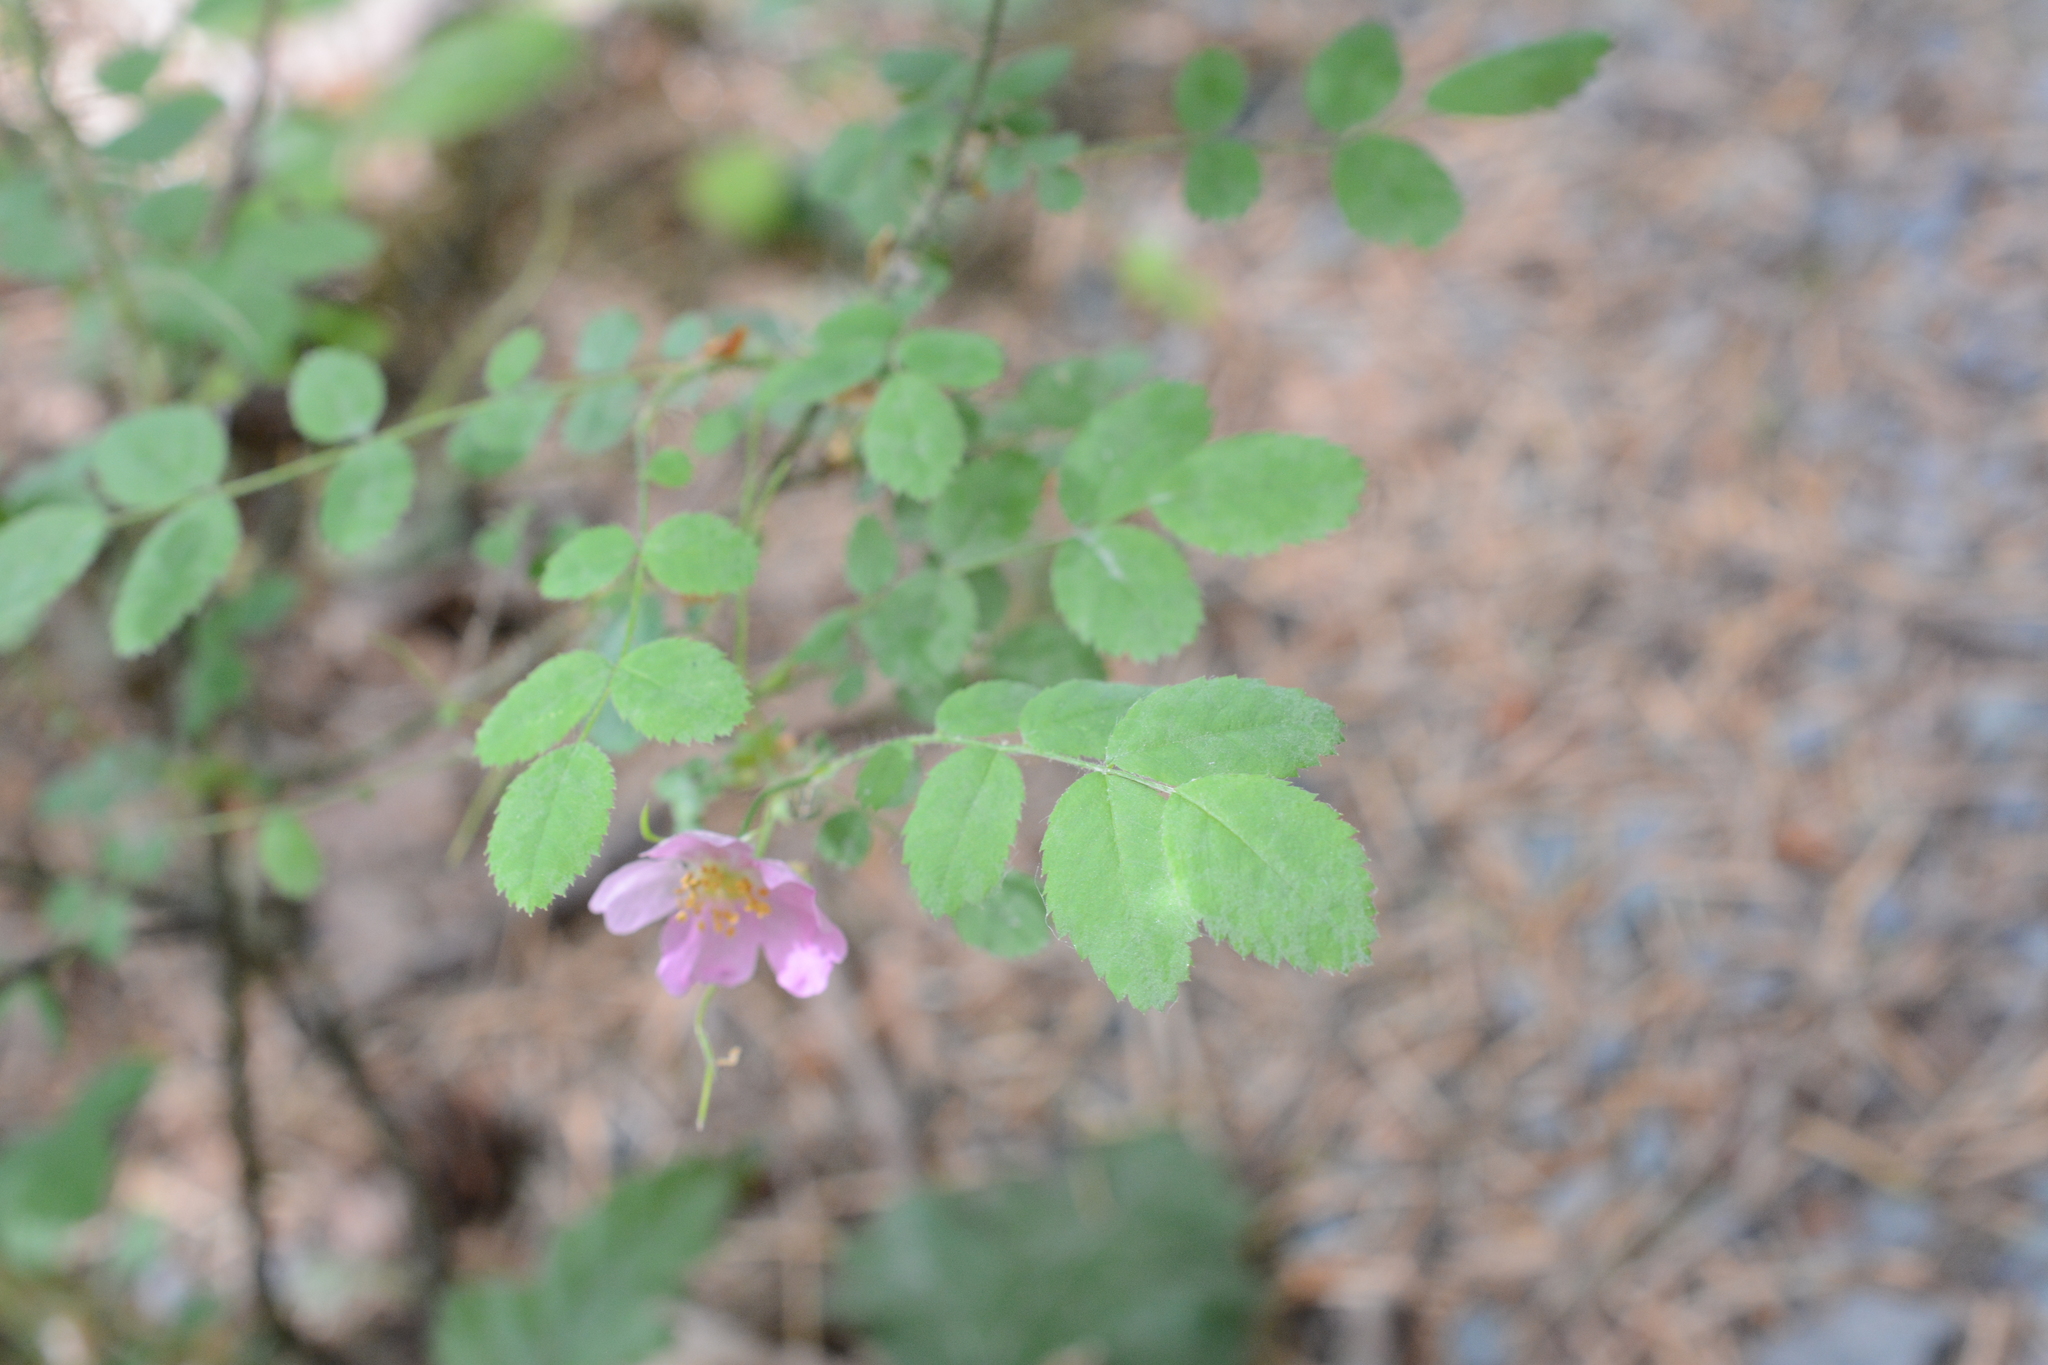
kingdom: Plantae
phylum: Tracheophyta
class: Magnoliopsida
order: Rosales
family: Rosaceae
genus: Rosa
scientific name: Rosa gymnocarpa
